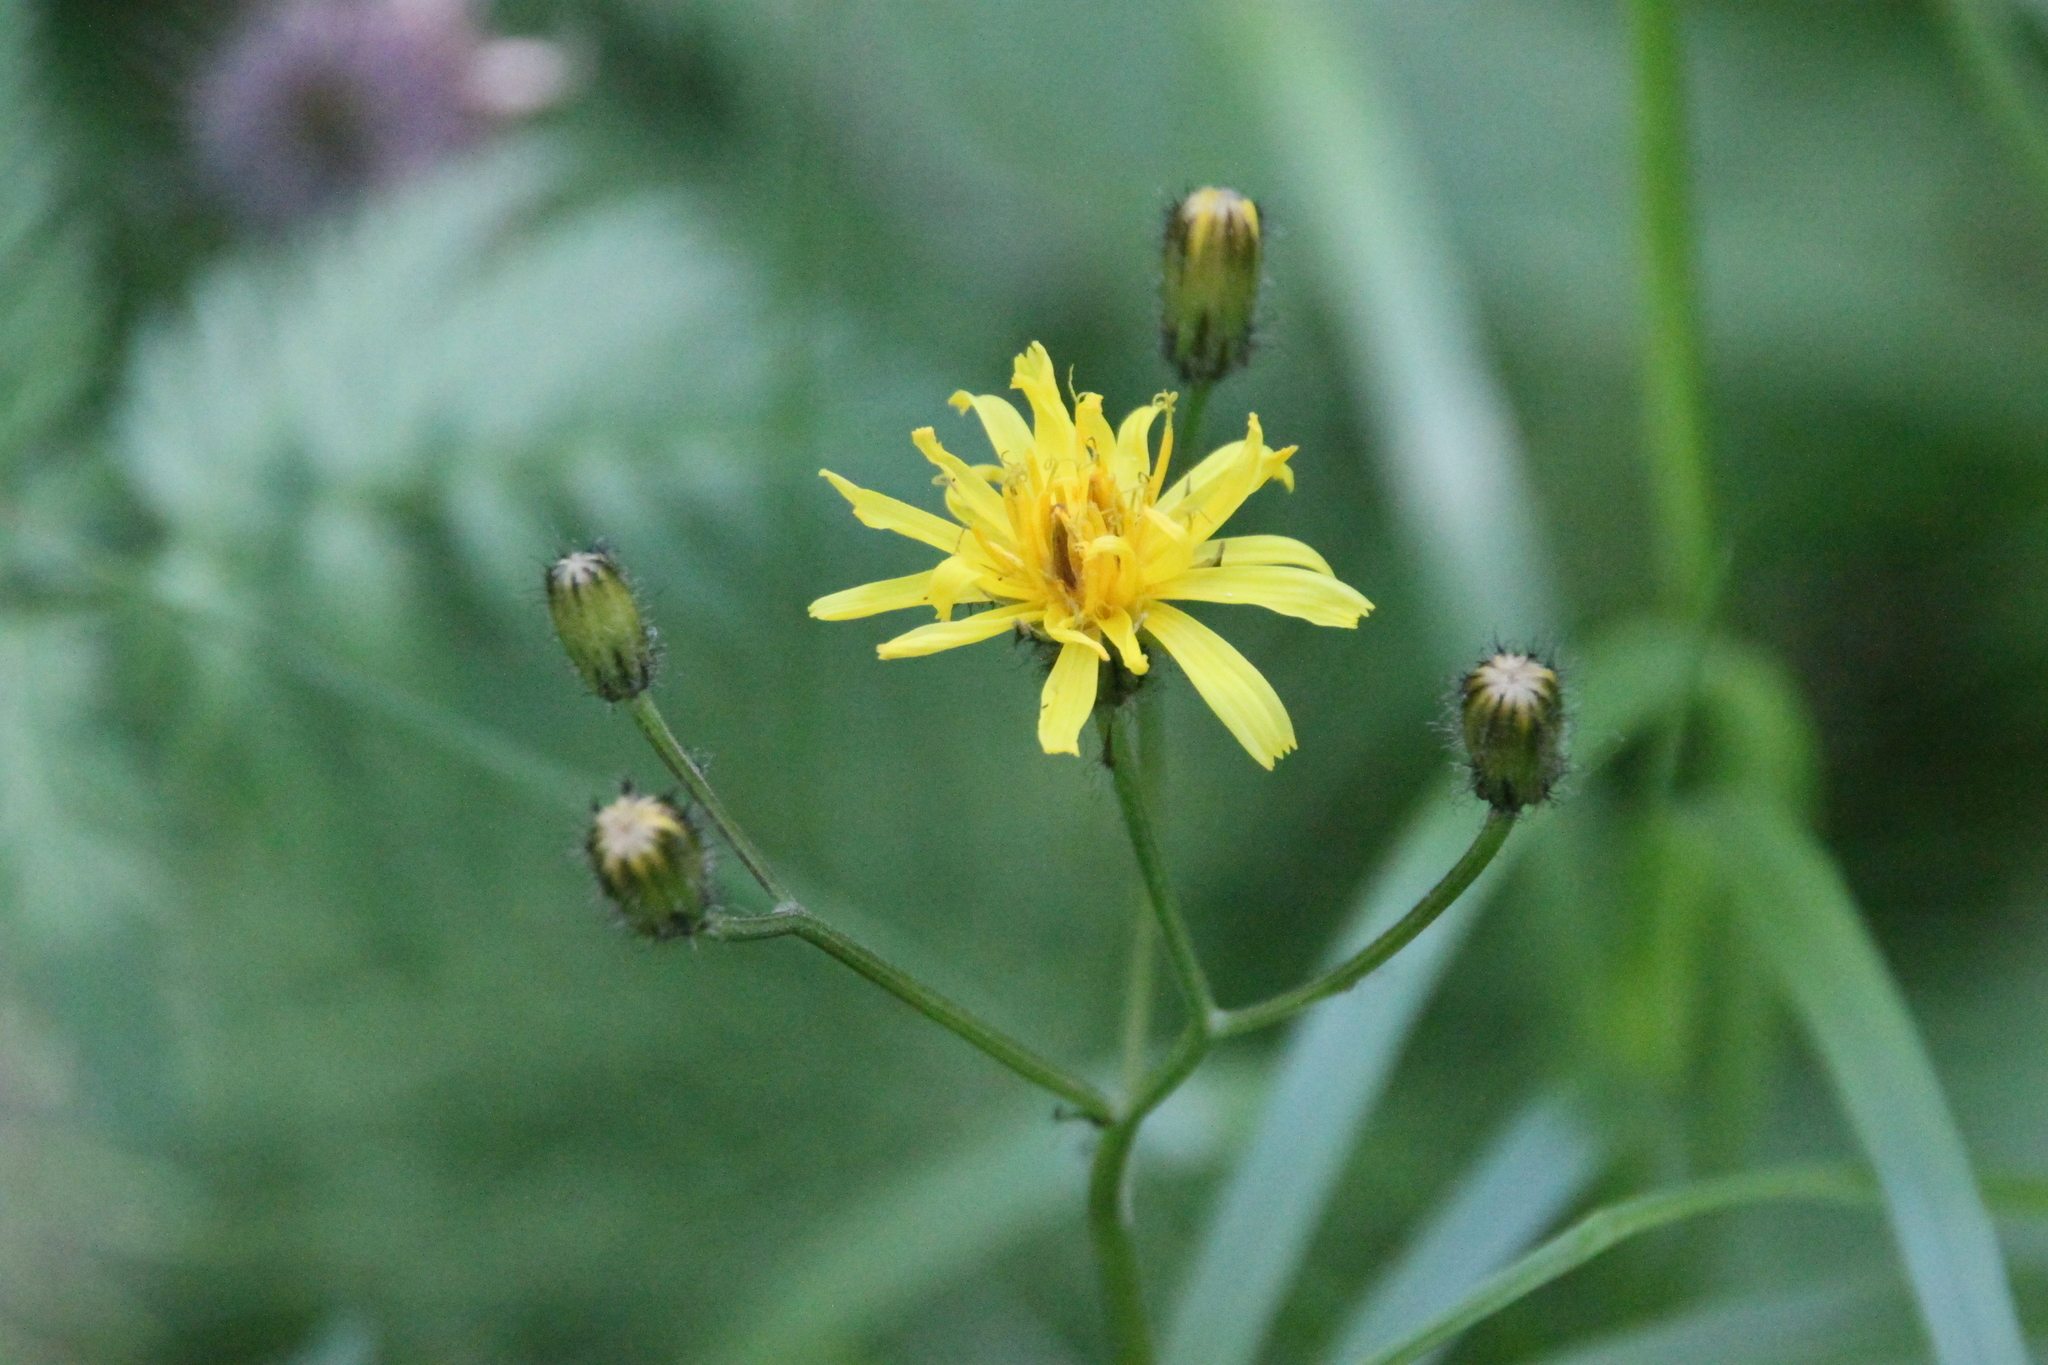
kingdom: Plantae
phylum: Tracheophyta
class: Magnoliopsida
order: Asterales
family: Asteraceae
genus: Crepis
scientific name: Crepis paludosa
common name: Marsh hawk's-beard
